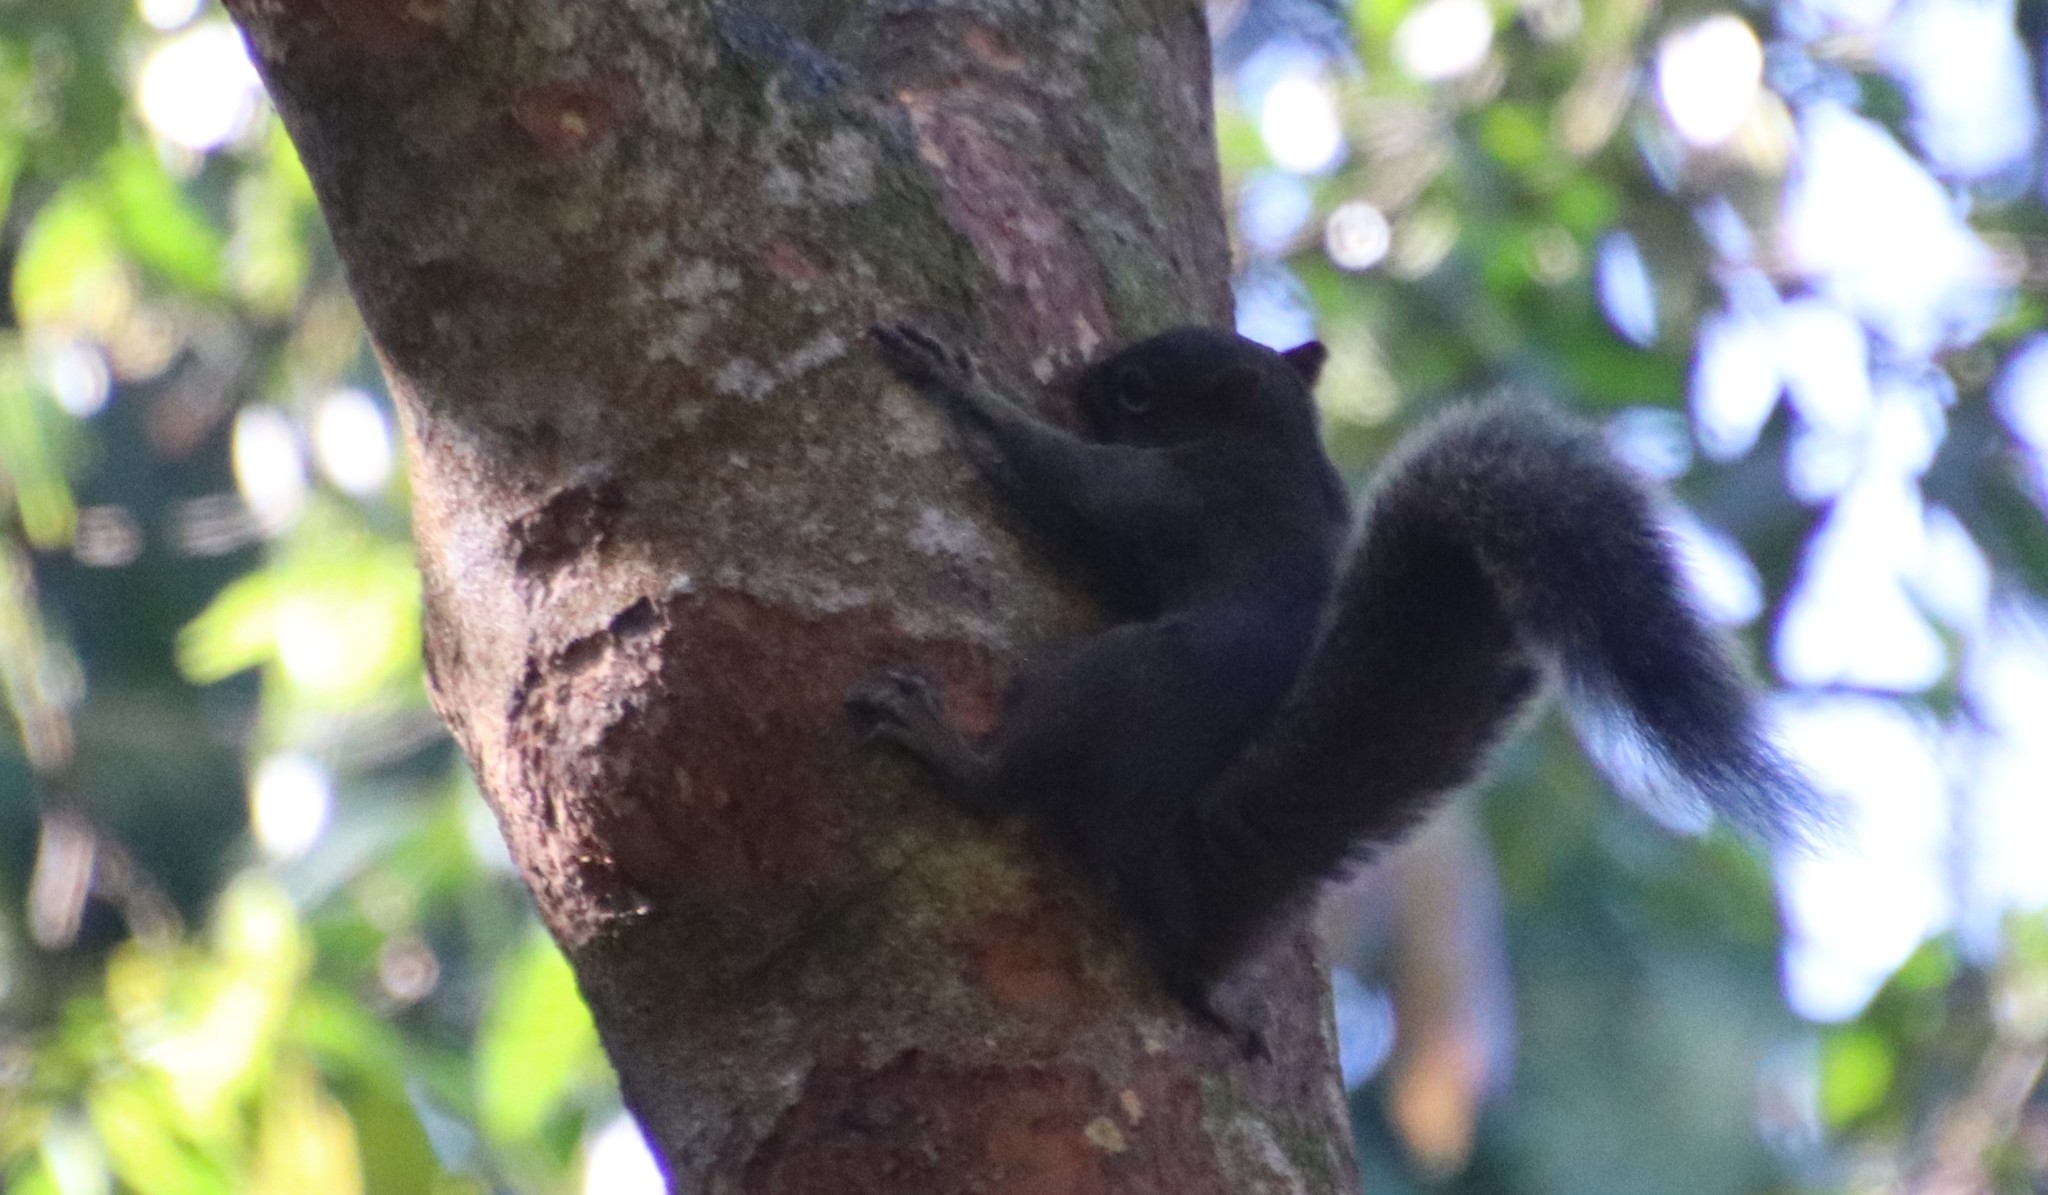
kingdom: Animalia
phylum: Chordata
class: Mammalia
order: Rodentia
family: Sciuridae
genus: Sciurus
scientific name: Sciurus aestuans
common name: Guianan squirrel
